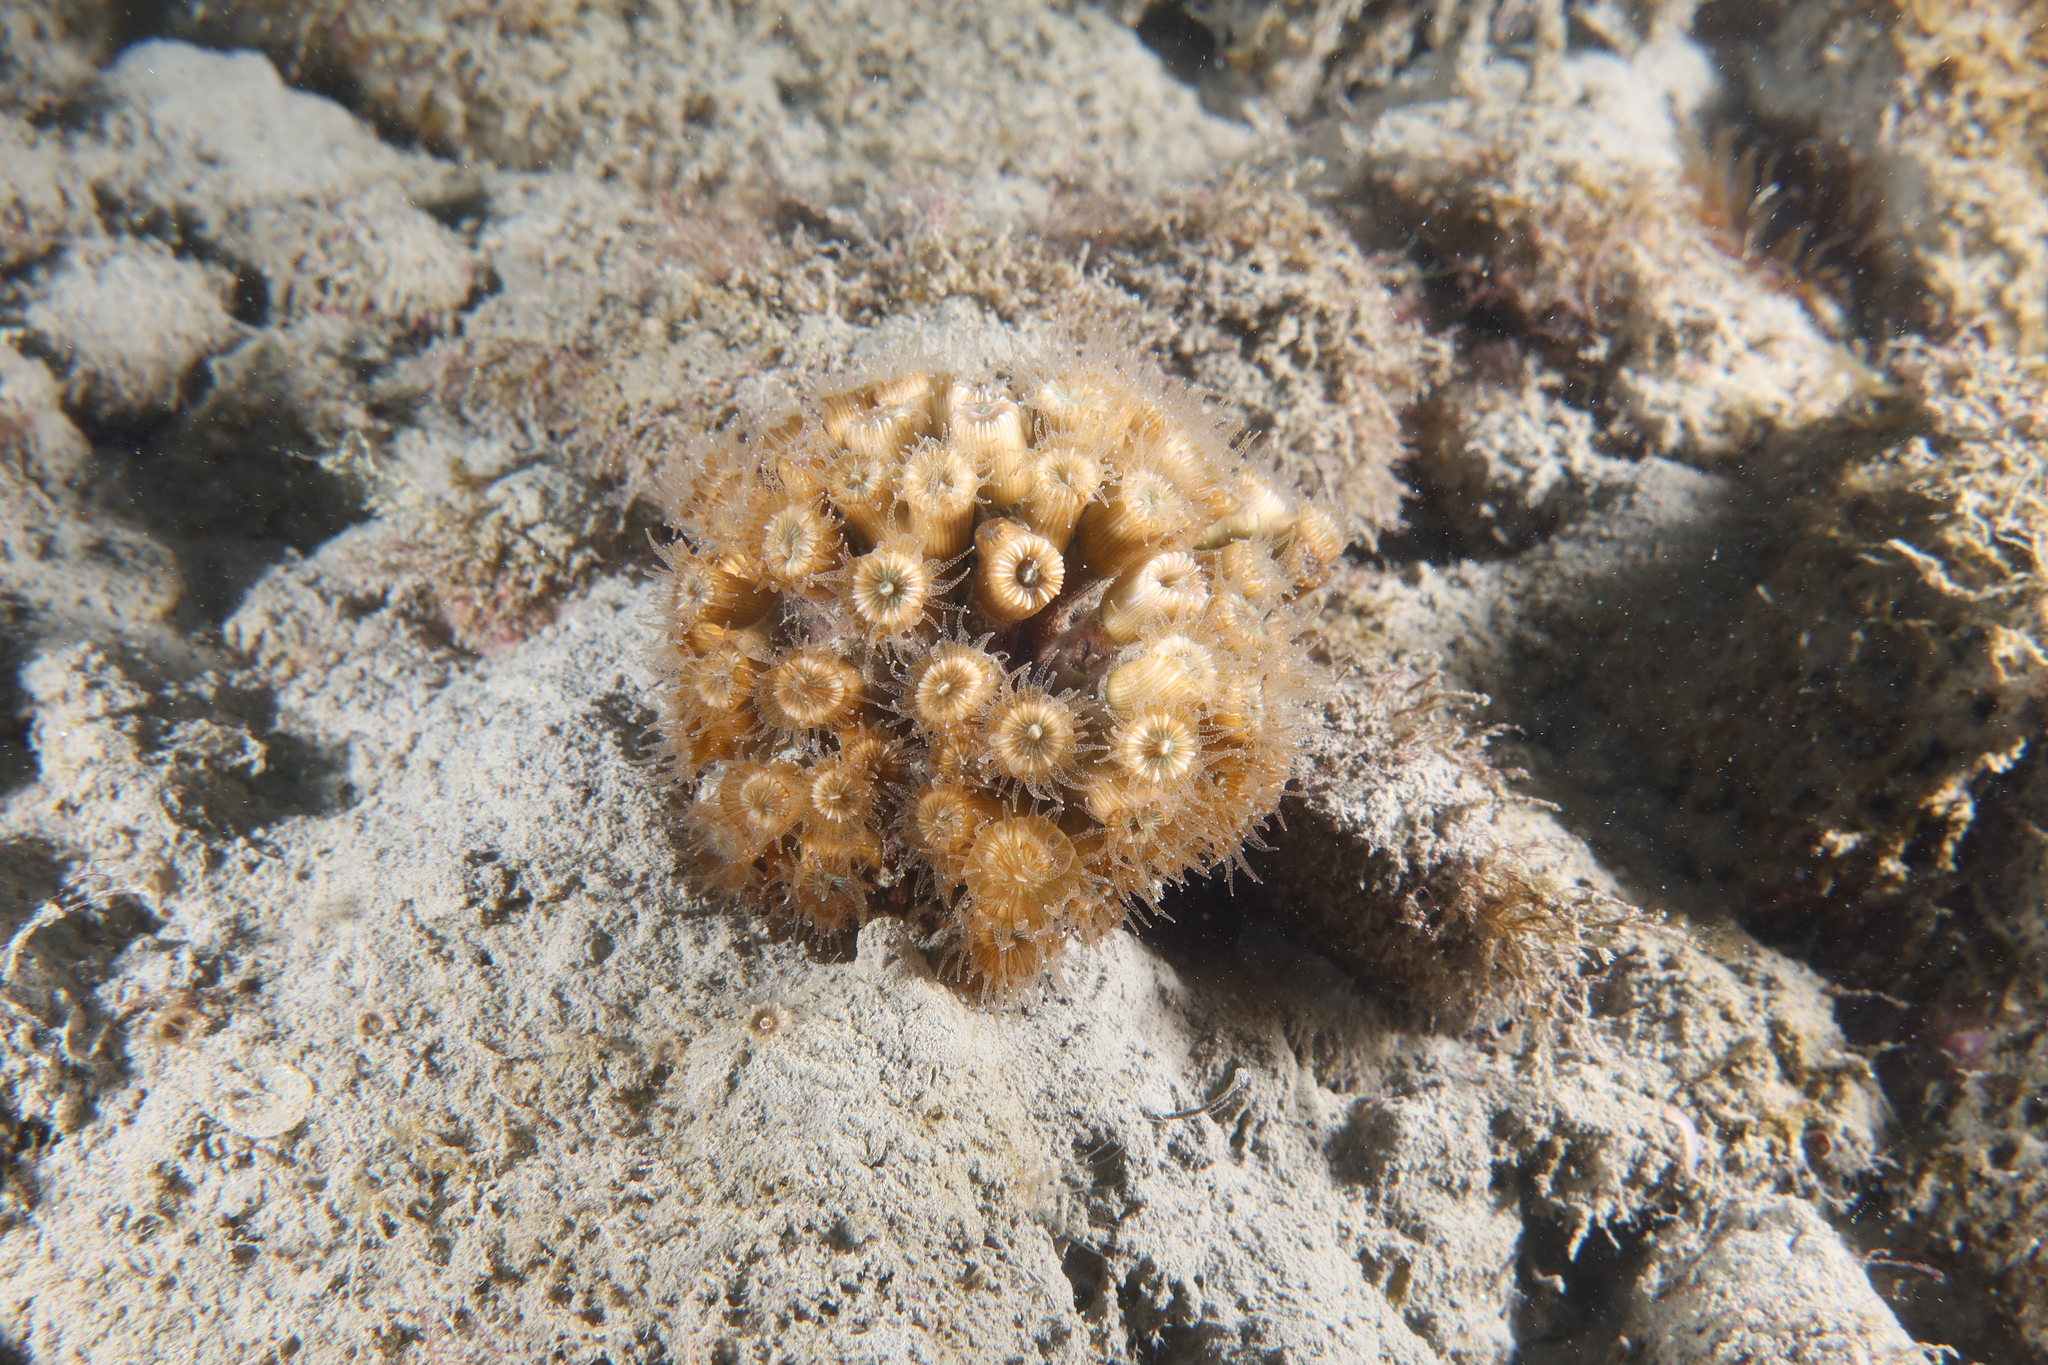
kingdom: Animalia
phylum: Cnidaria
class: Anthozoa
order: Scleractinia
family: Cladocoridae
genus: Cladocora
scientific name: Cladocora caespitosa
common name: Cladocora
